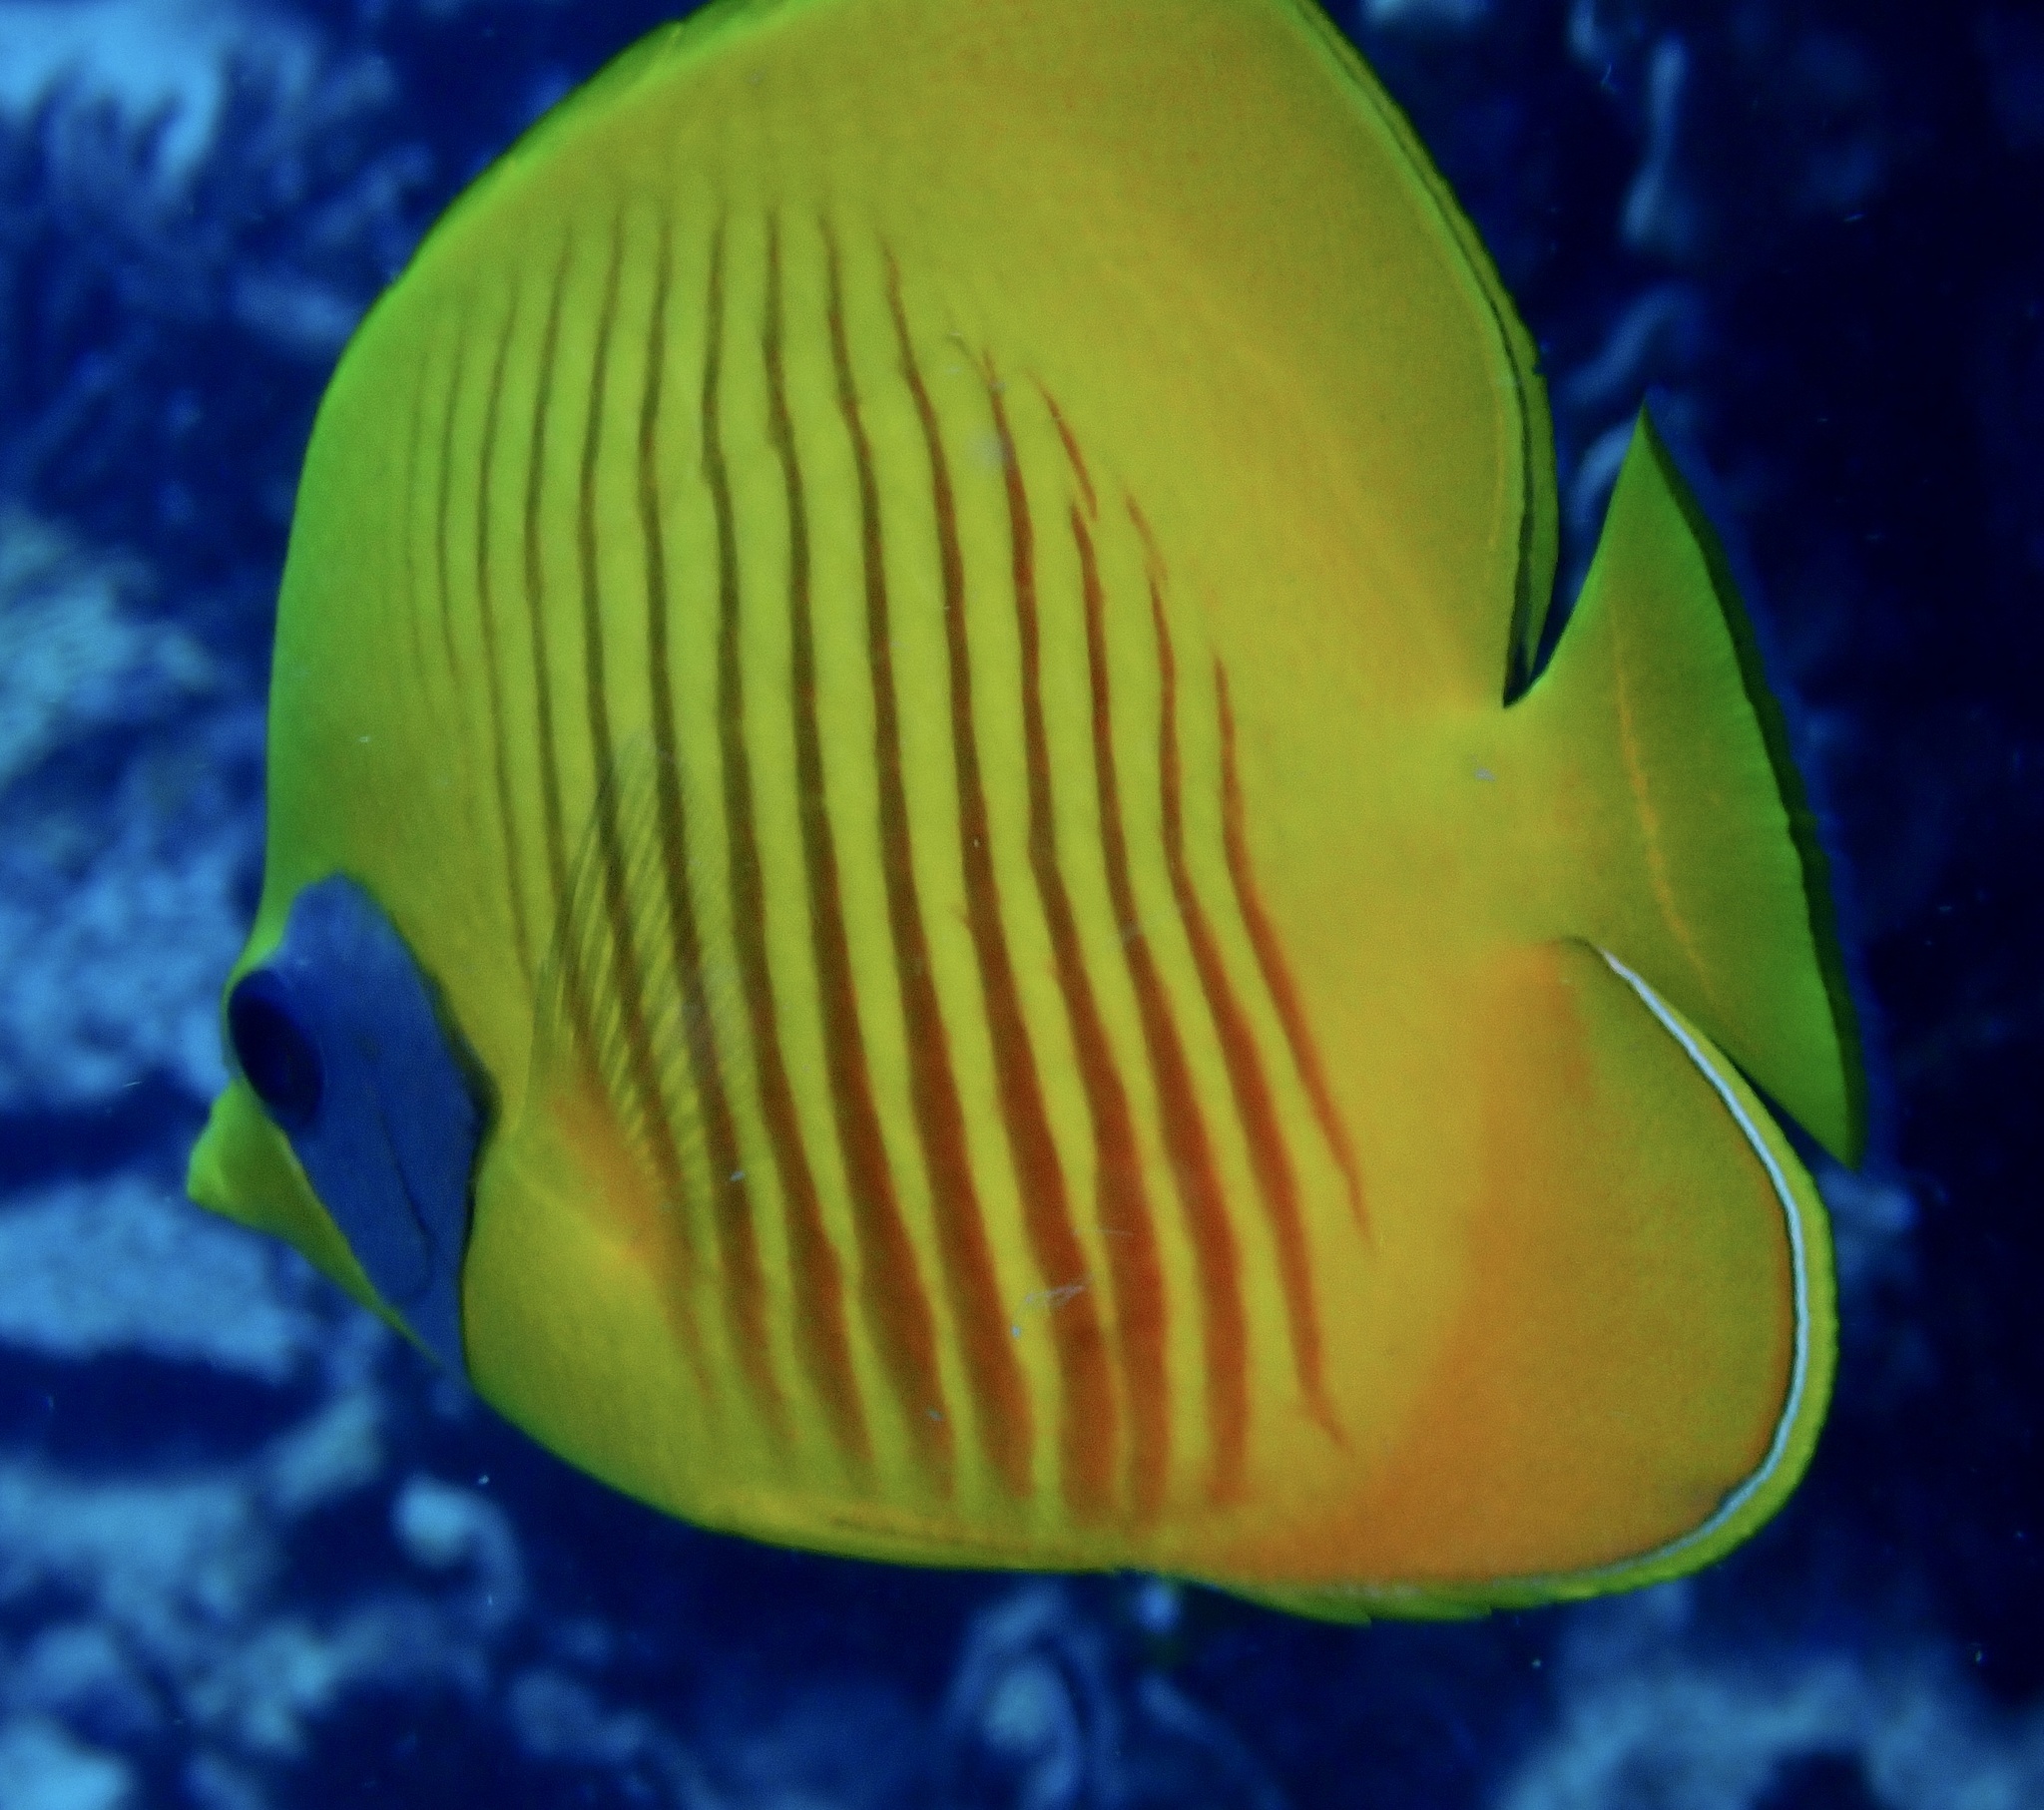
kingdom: Animalia
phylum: Chordata
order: Perciformes
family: Chaetodontidae
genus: Chaetodon
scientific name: Chaetodon semilarvatus
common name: Golden butterflyfish
